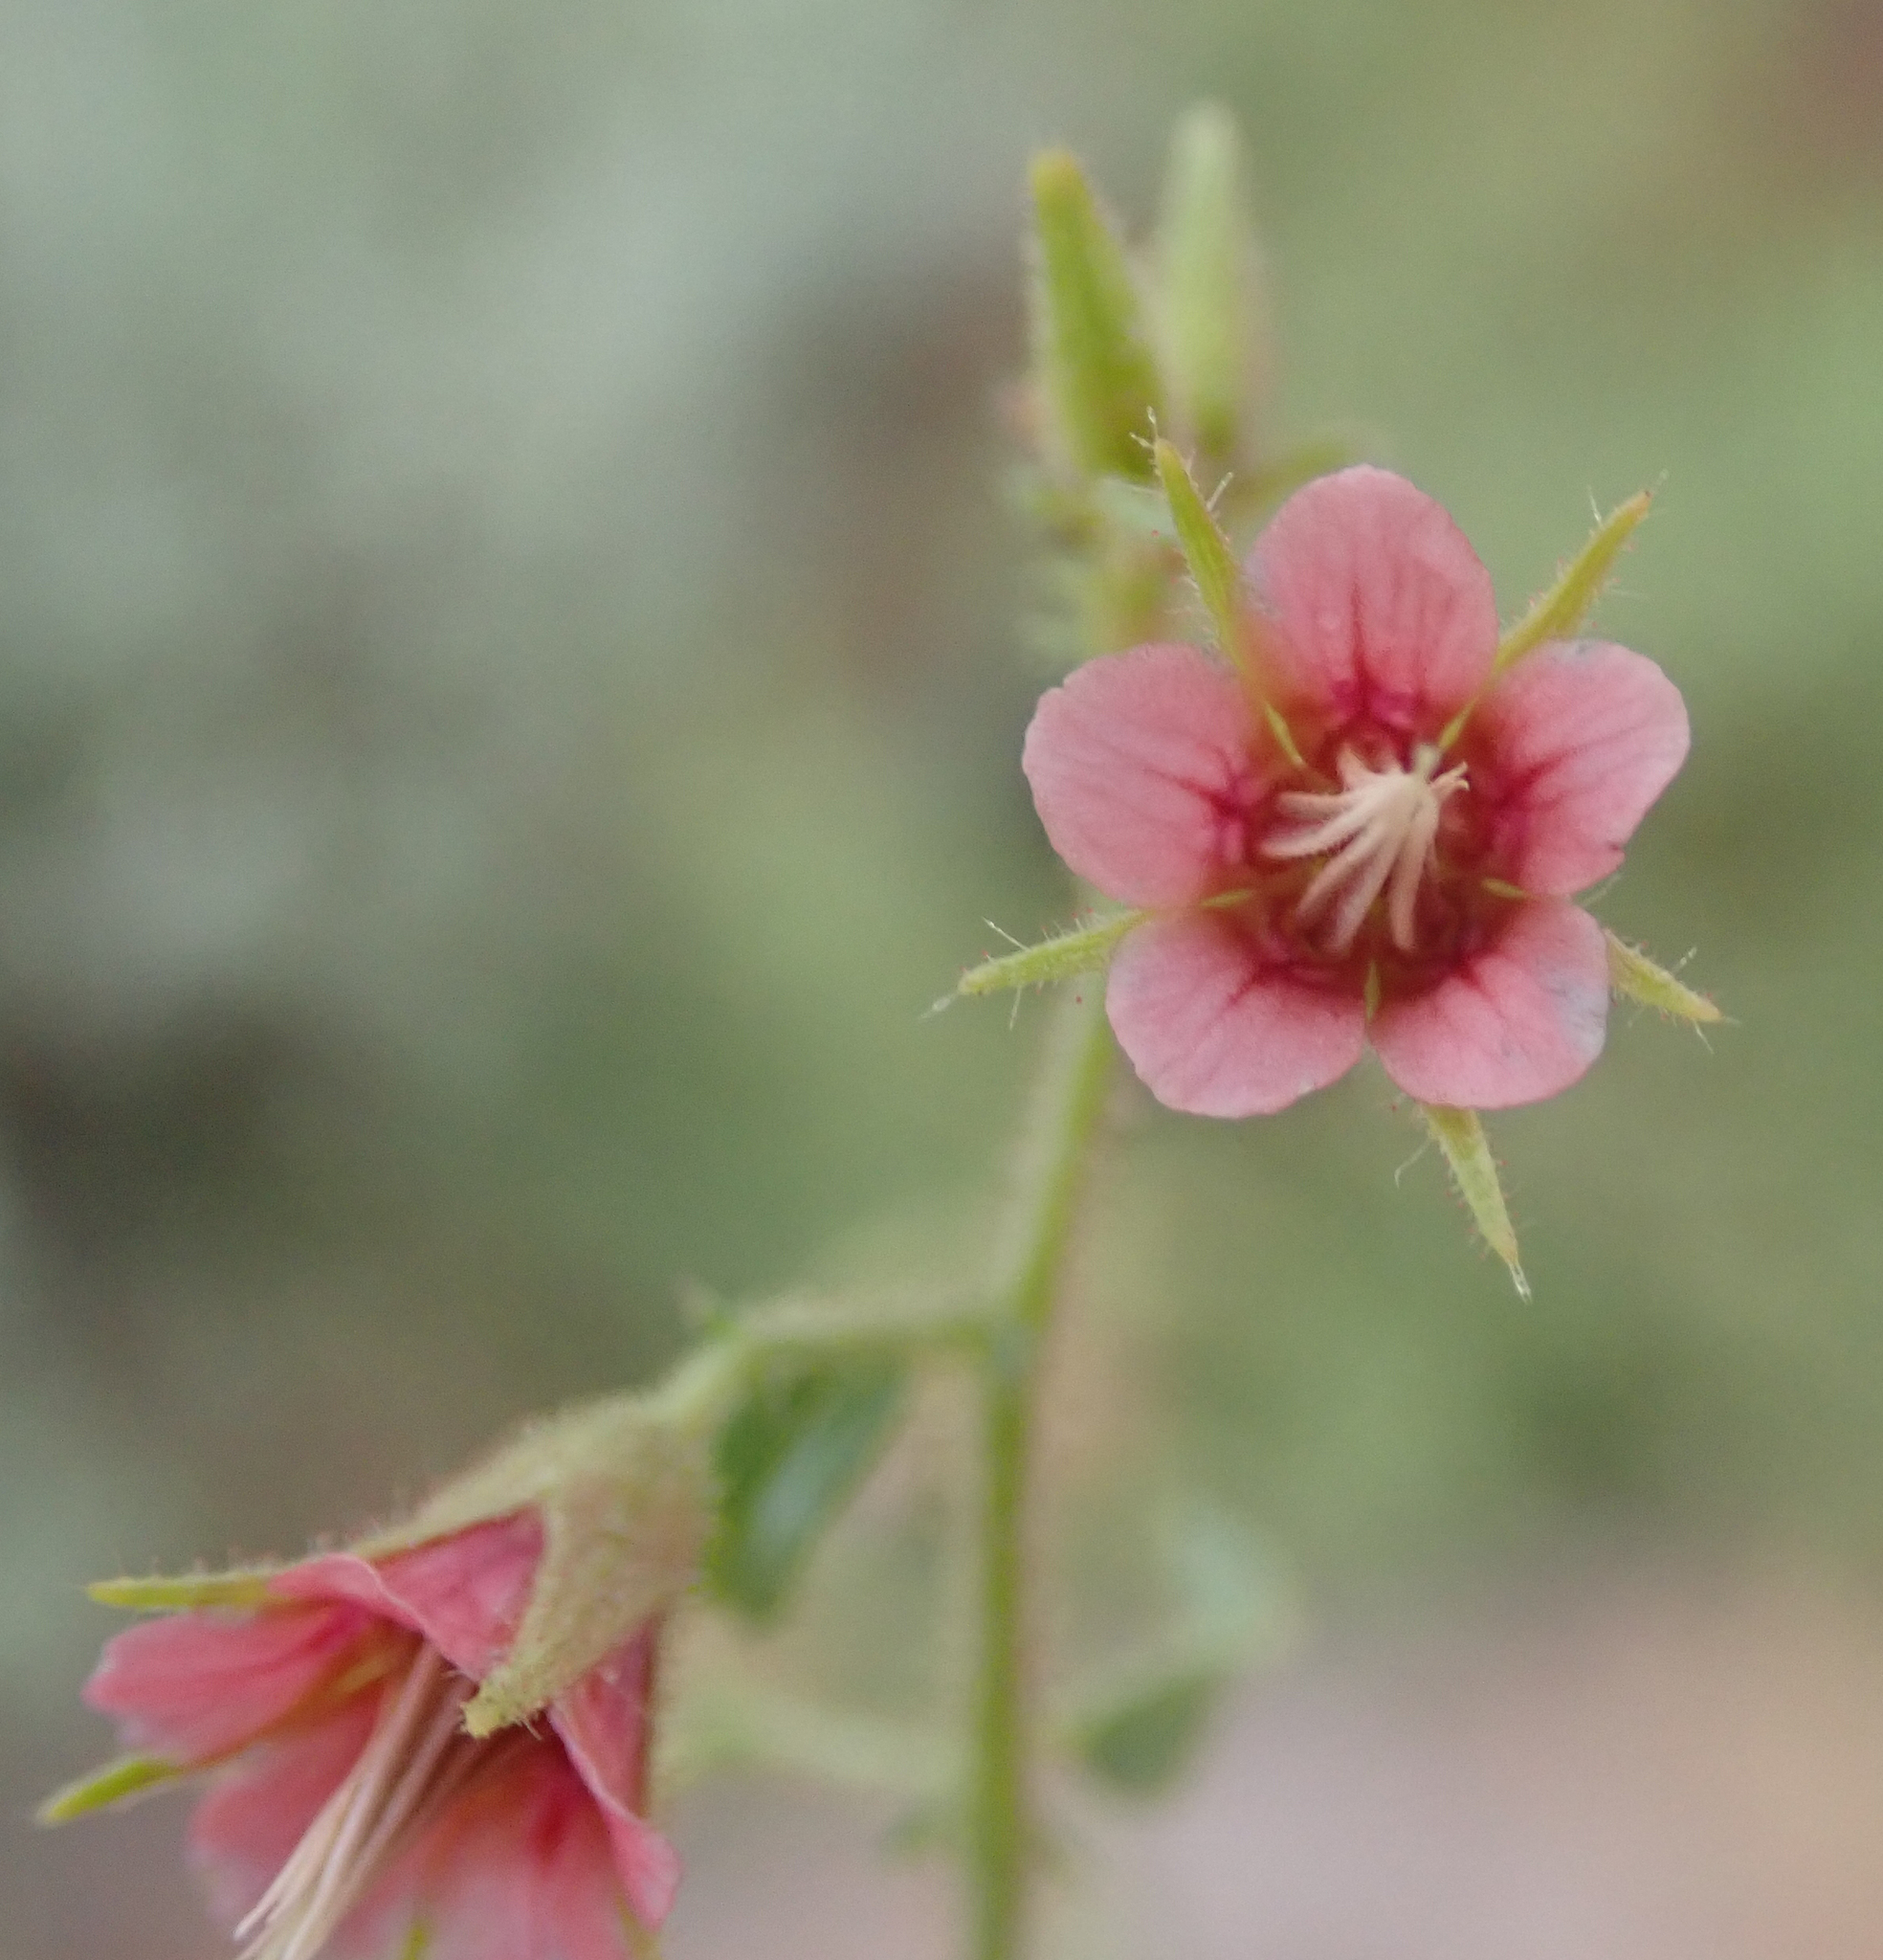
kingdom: Plantae
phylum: Tracheophyta
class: Magnoliopsida
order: Malvales
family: Malvaceae
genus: Hermannia
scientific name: Hermannia glanduligera
